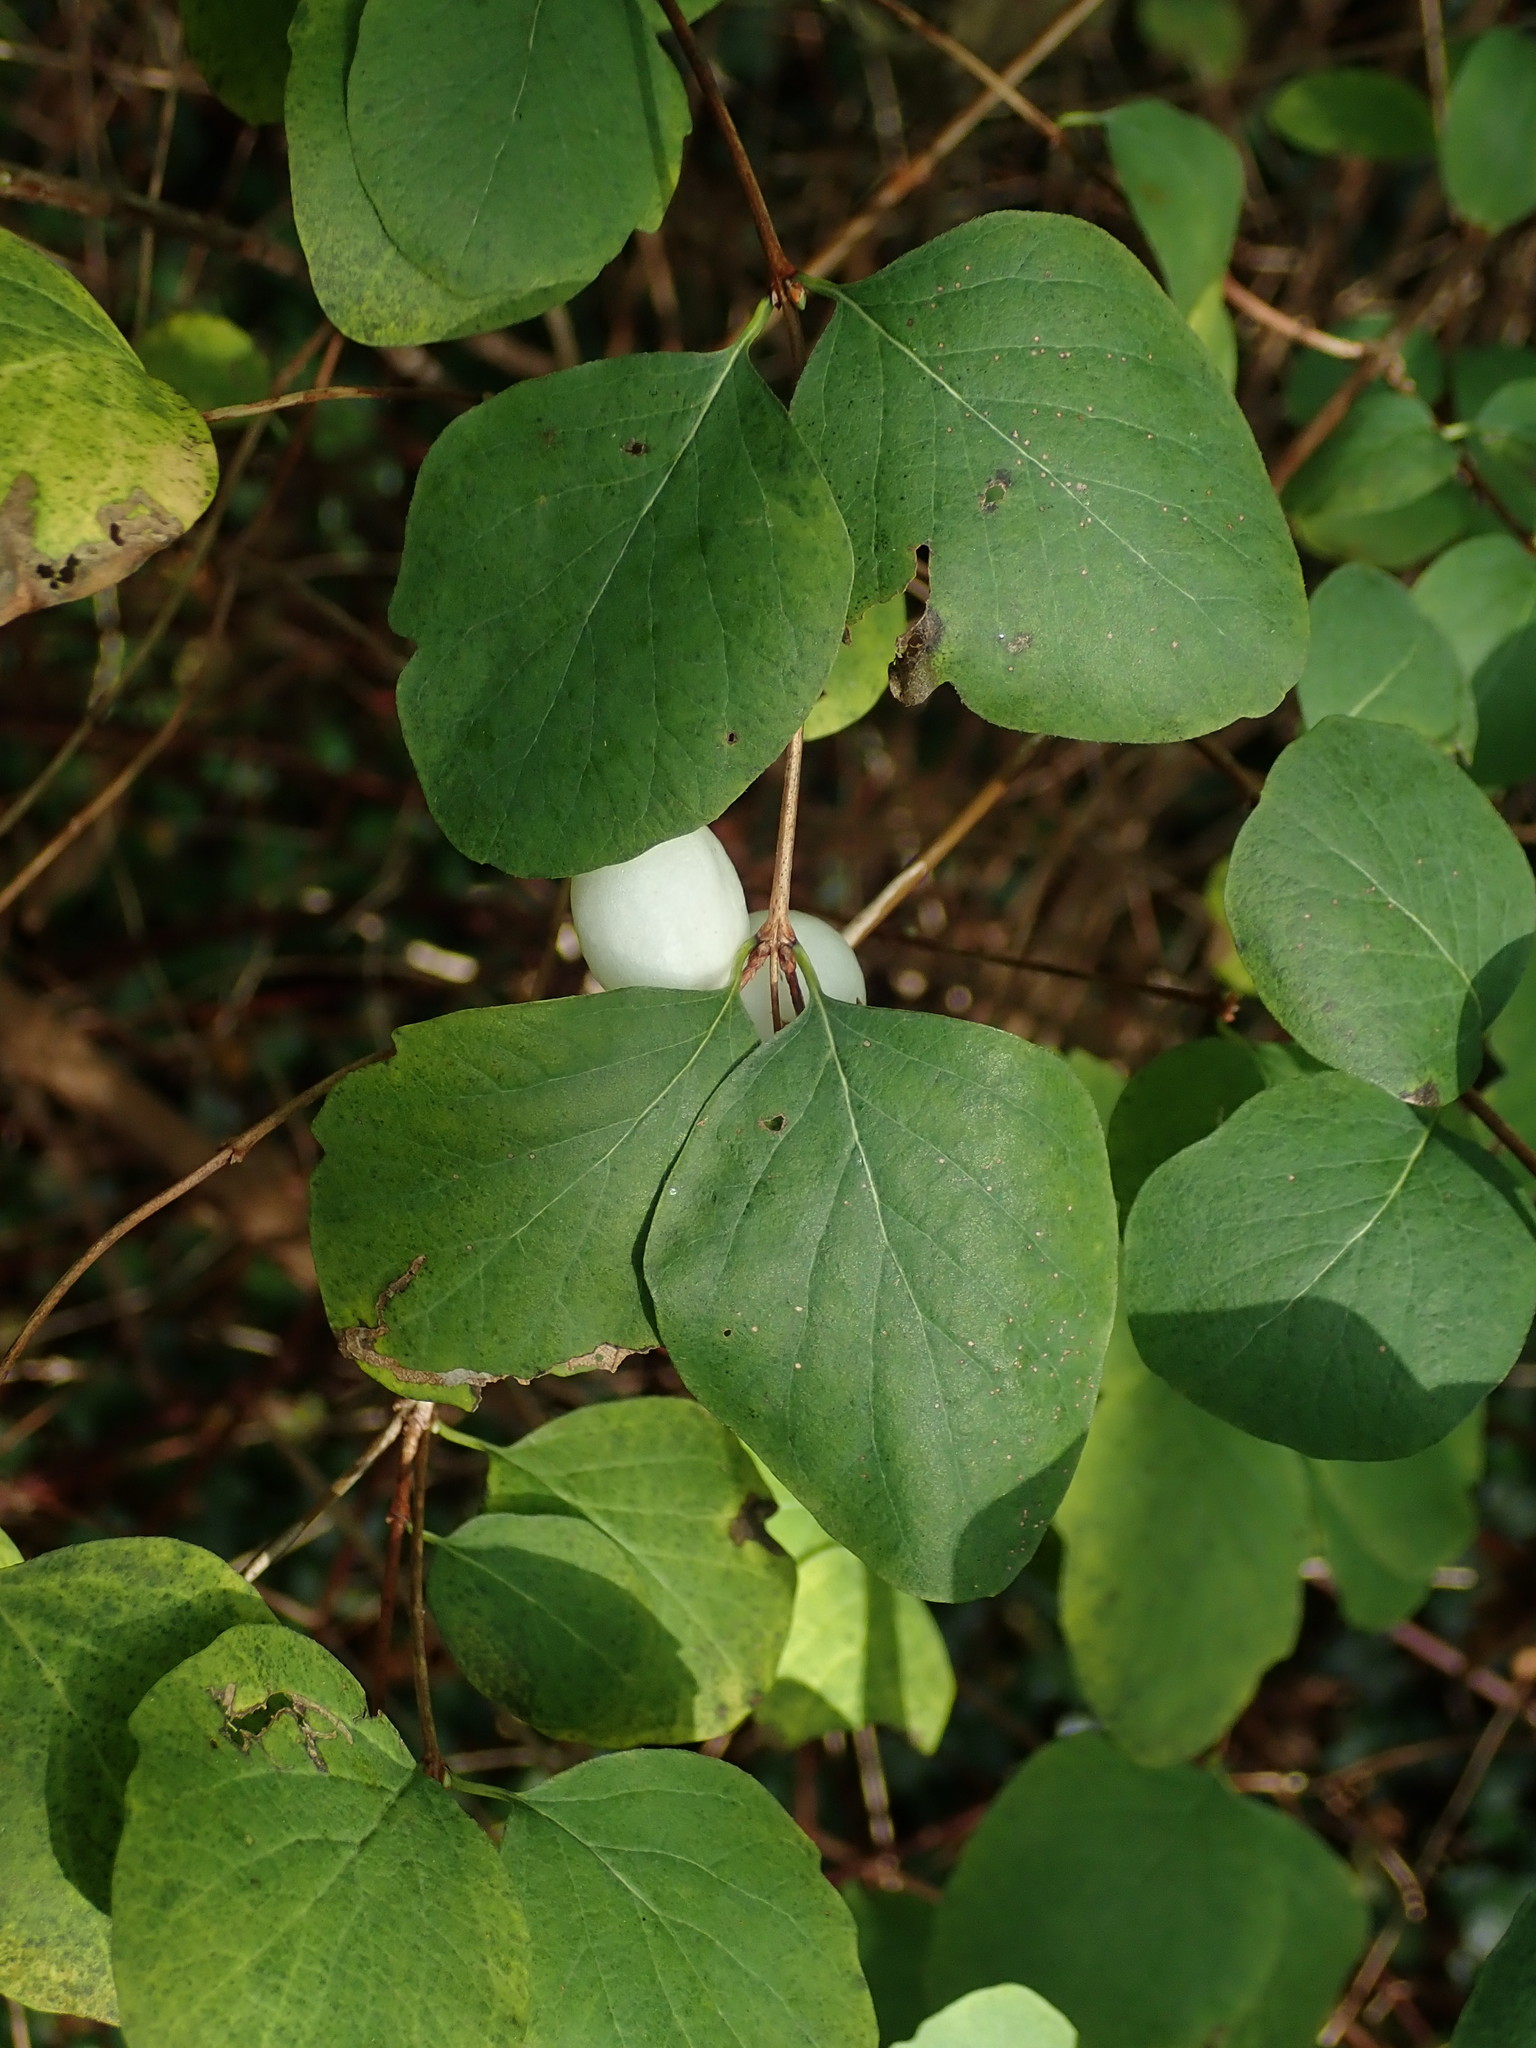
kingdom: Plantae
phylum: Tracheophyta
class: Magnoliopsida
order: Dipsacales
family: Caprifoliaceae
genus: Symphoricarpos
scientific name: Symphoricarpos albus
